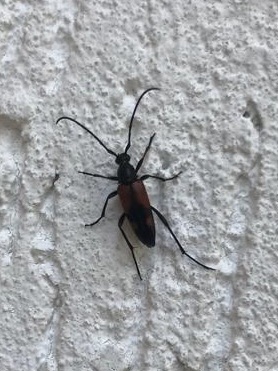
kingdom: Animalia
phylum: Arthropoda
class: Insecta
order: Coleoptera
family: Cerambycidae
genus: Stenurella
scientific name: Stenurella bifasciata
